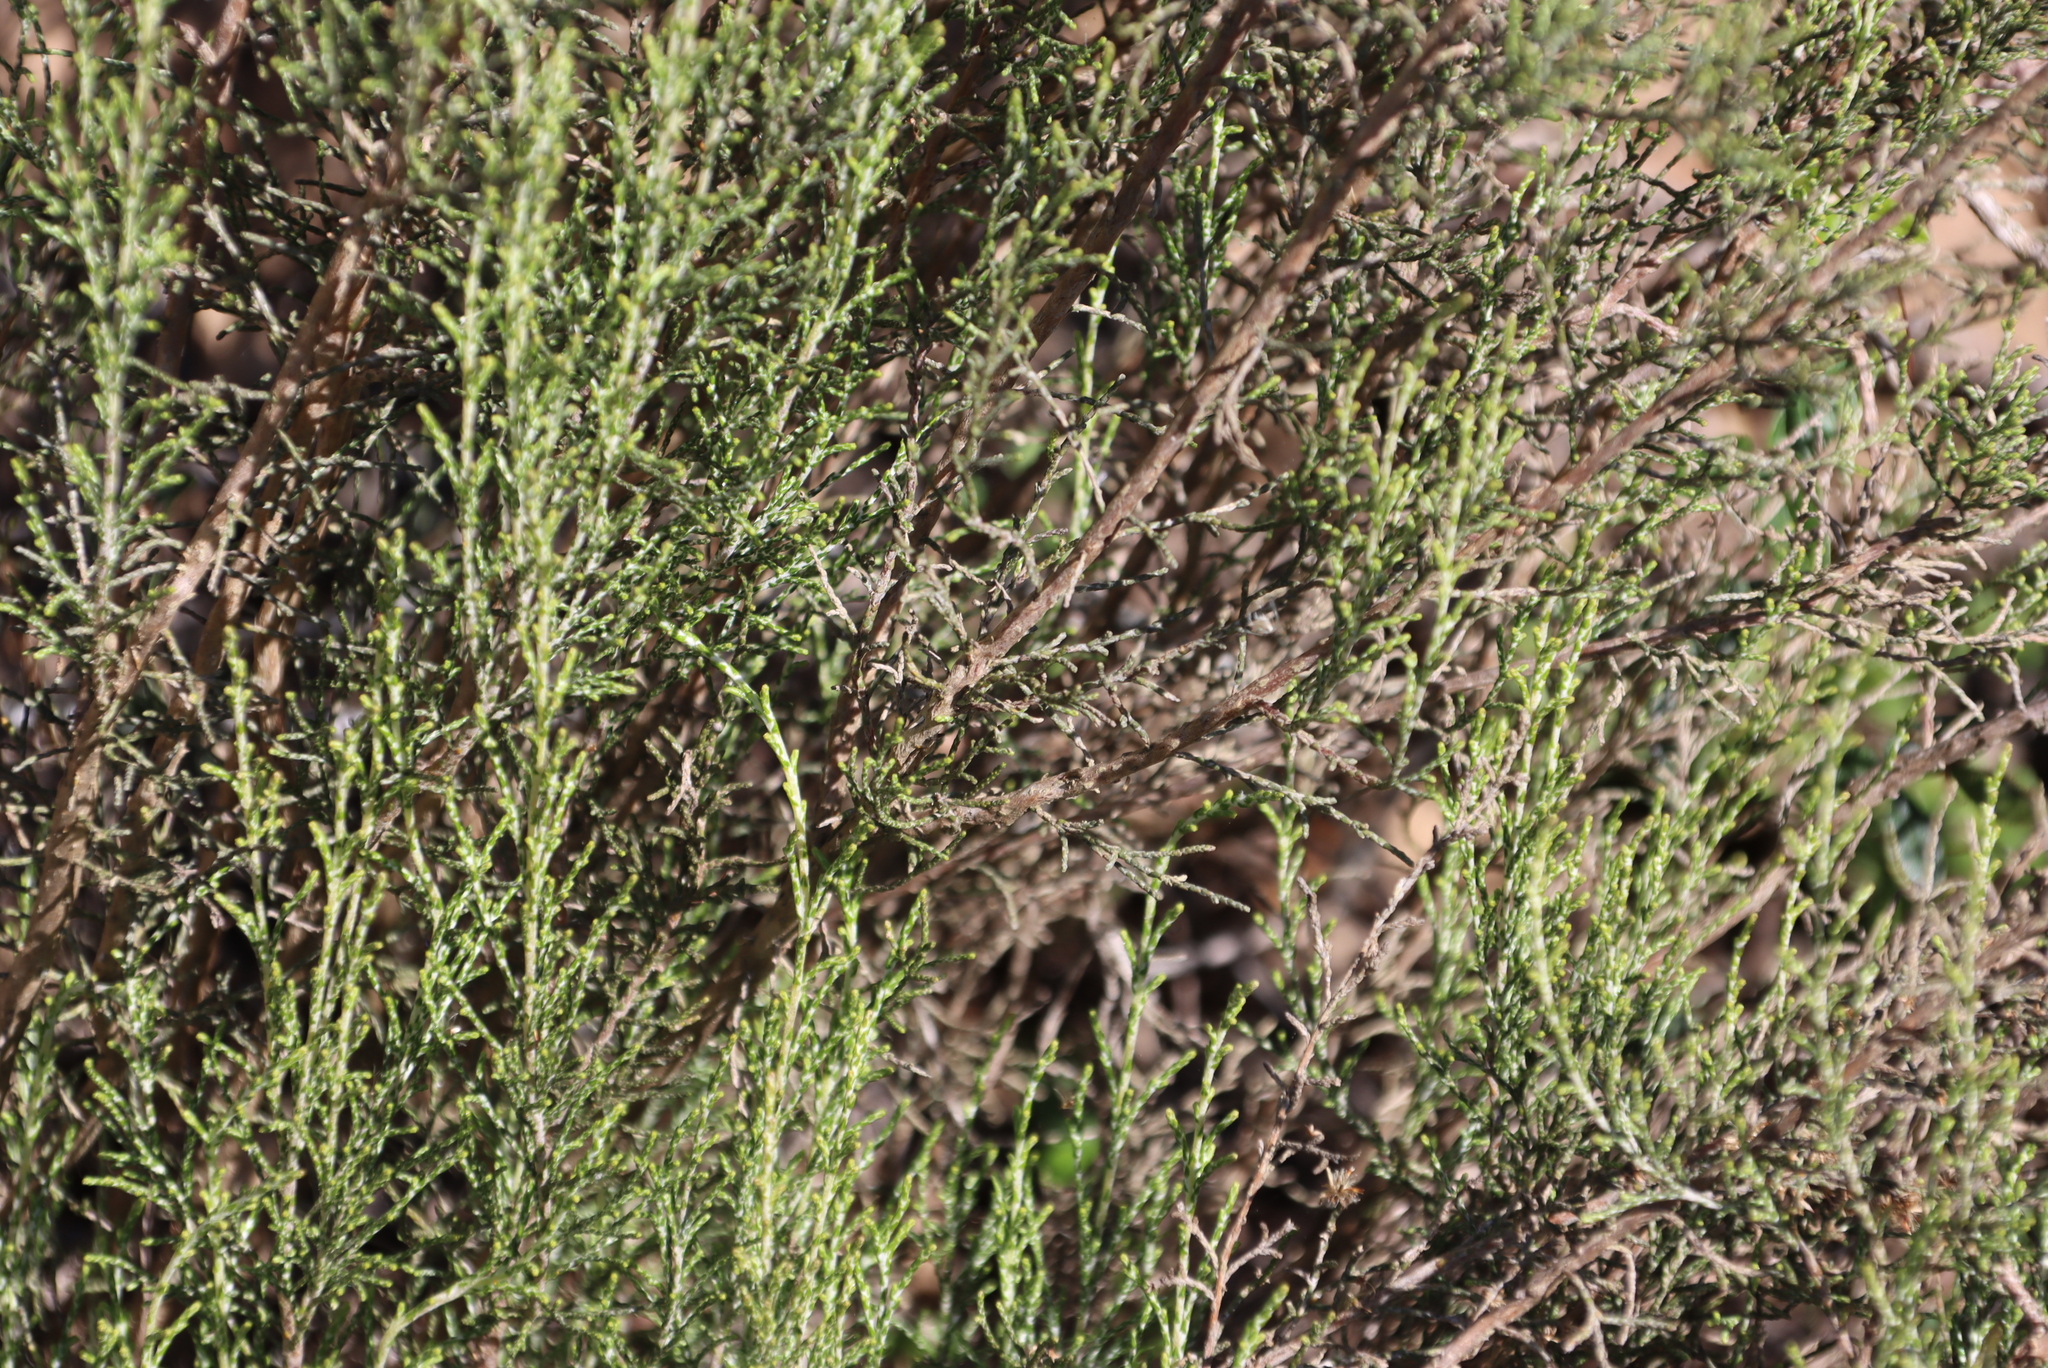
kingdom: Plantae
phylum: Tracheophyta
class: Magnoliopsida
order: Asterales
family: Asteraceae
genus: Dicerothamnus
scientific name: Dicerothamnus rhinocerotis
